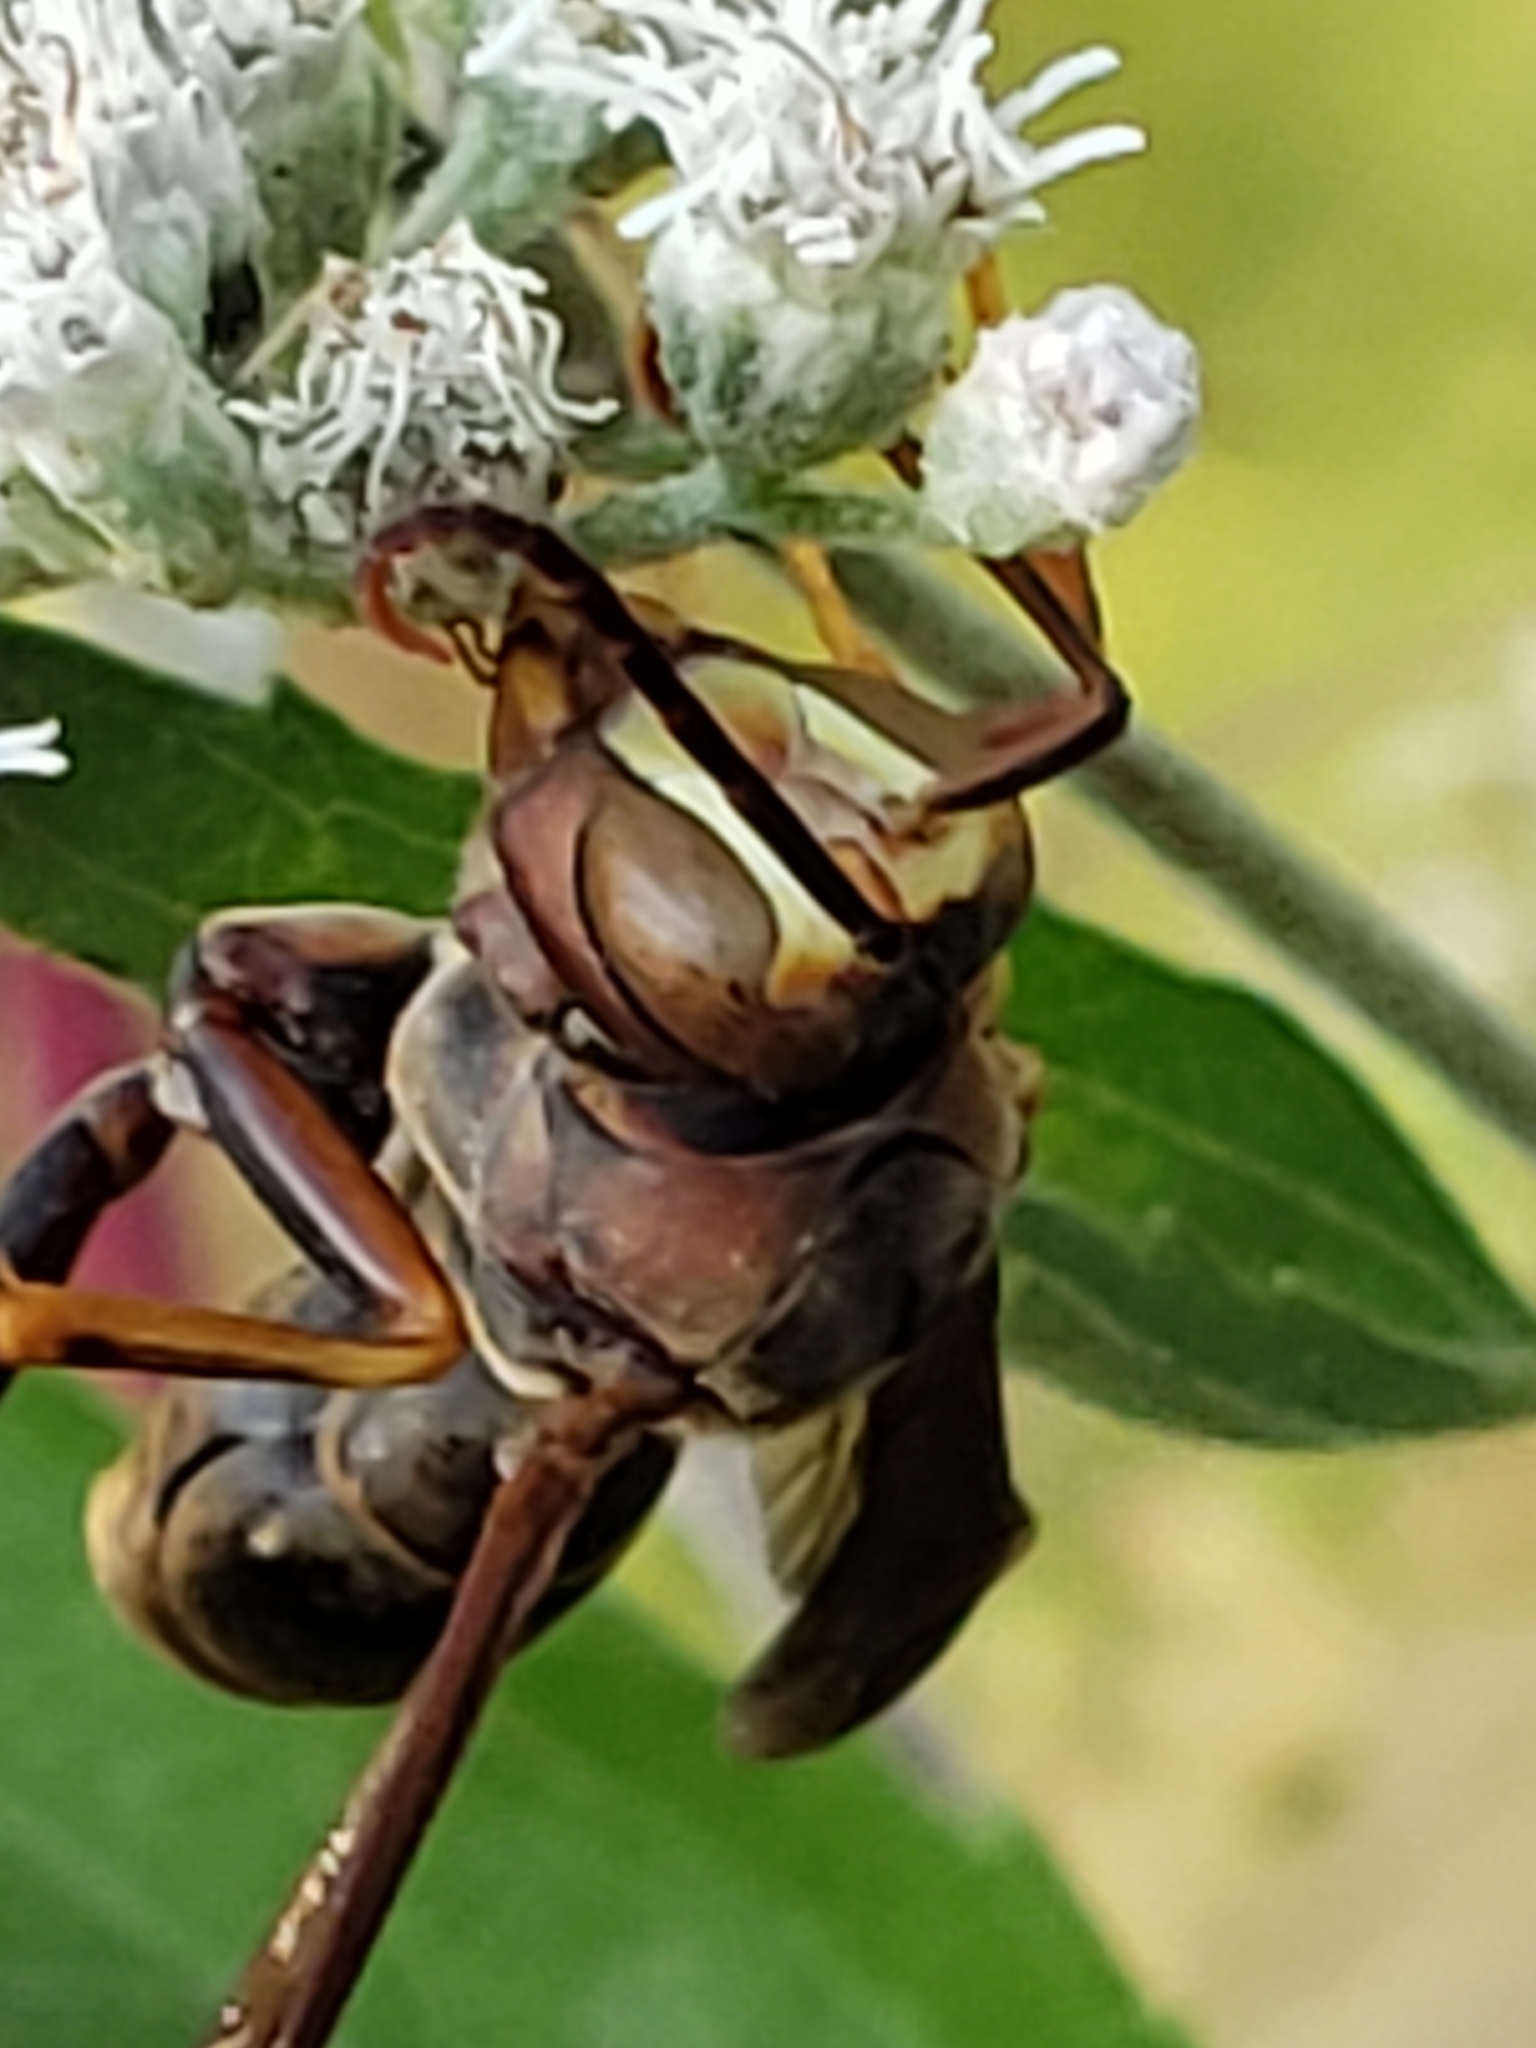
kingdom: Animalia
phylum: Arthropoda
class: Insecta
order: Hymenoptera
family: Eumenidae
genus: Polistes
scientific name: Polistes metricus
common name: Metric paper wasp
